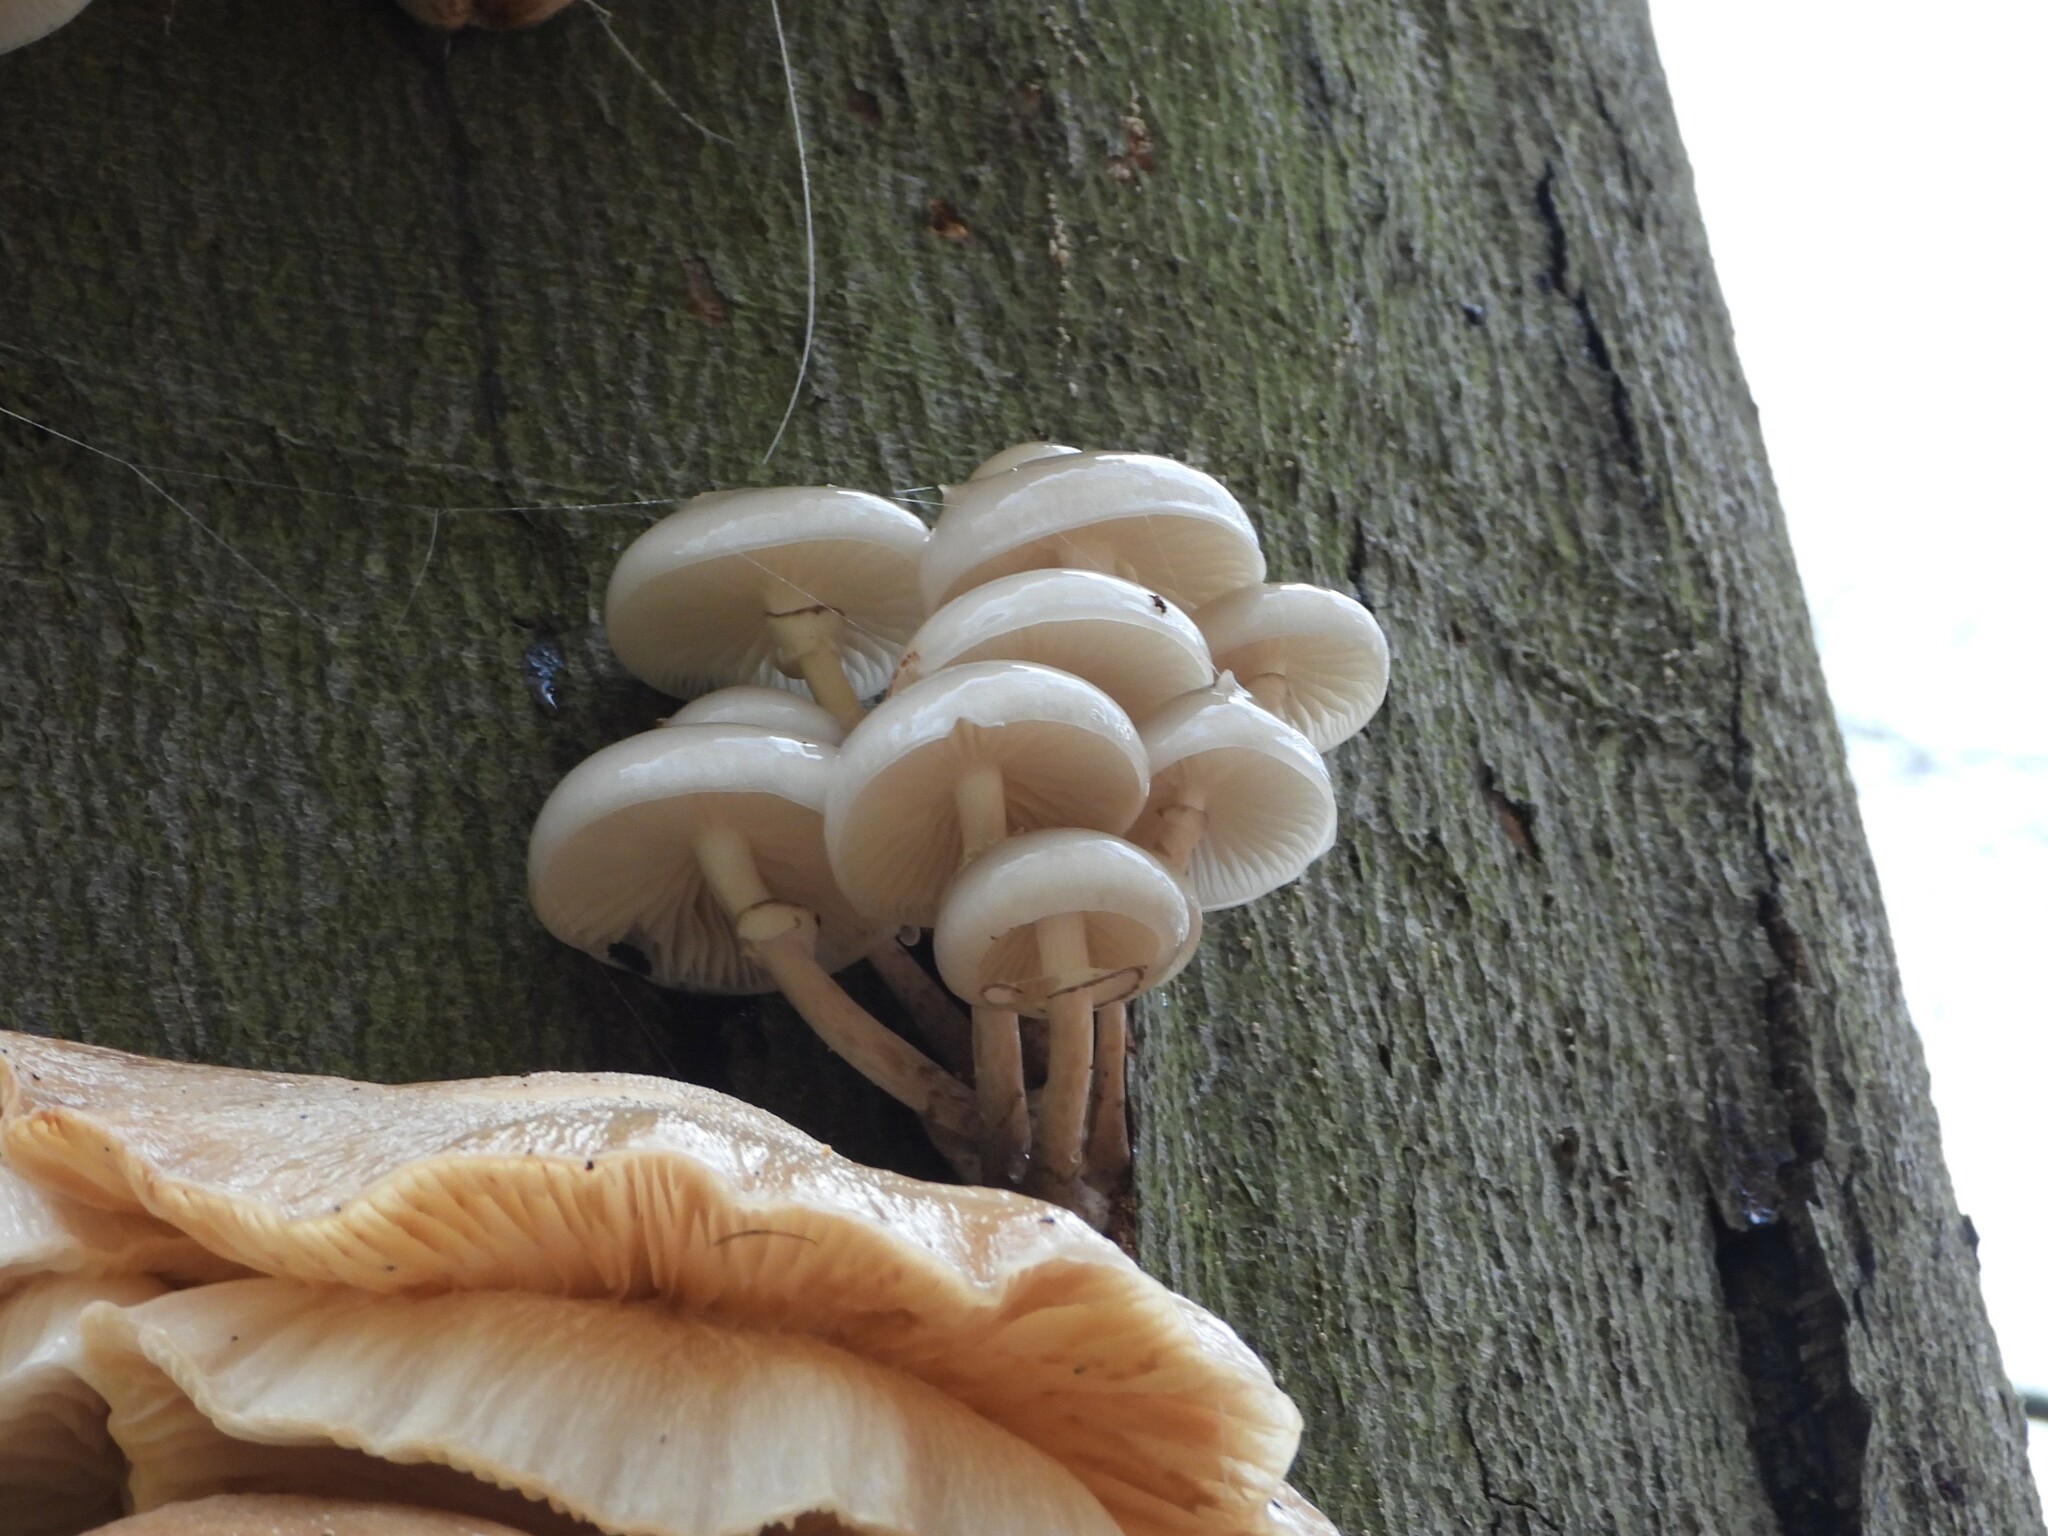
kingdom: Fungi
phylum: Basidiomycota
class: Agaricomycetes
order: Agaricales
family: Physalacriaceae
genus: Mucidula
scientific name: Mucidula mucida
